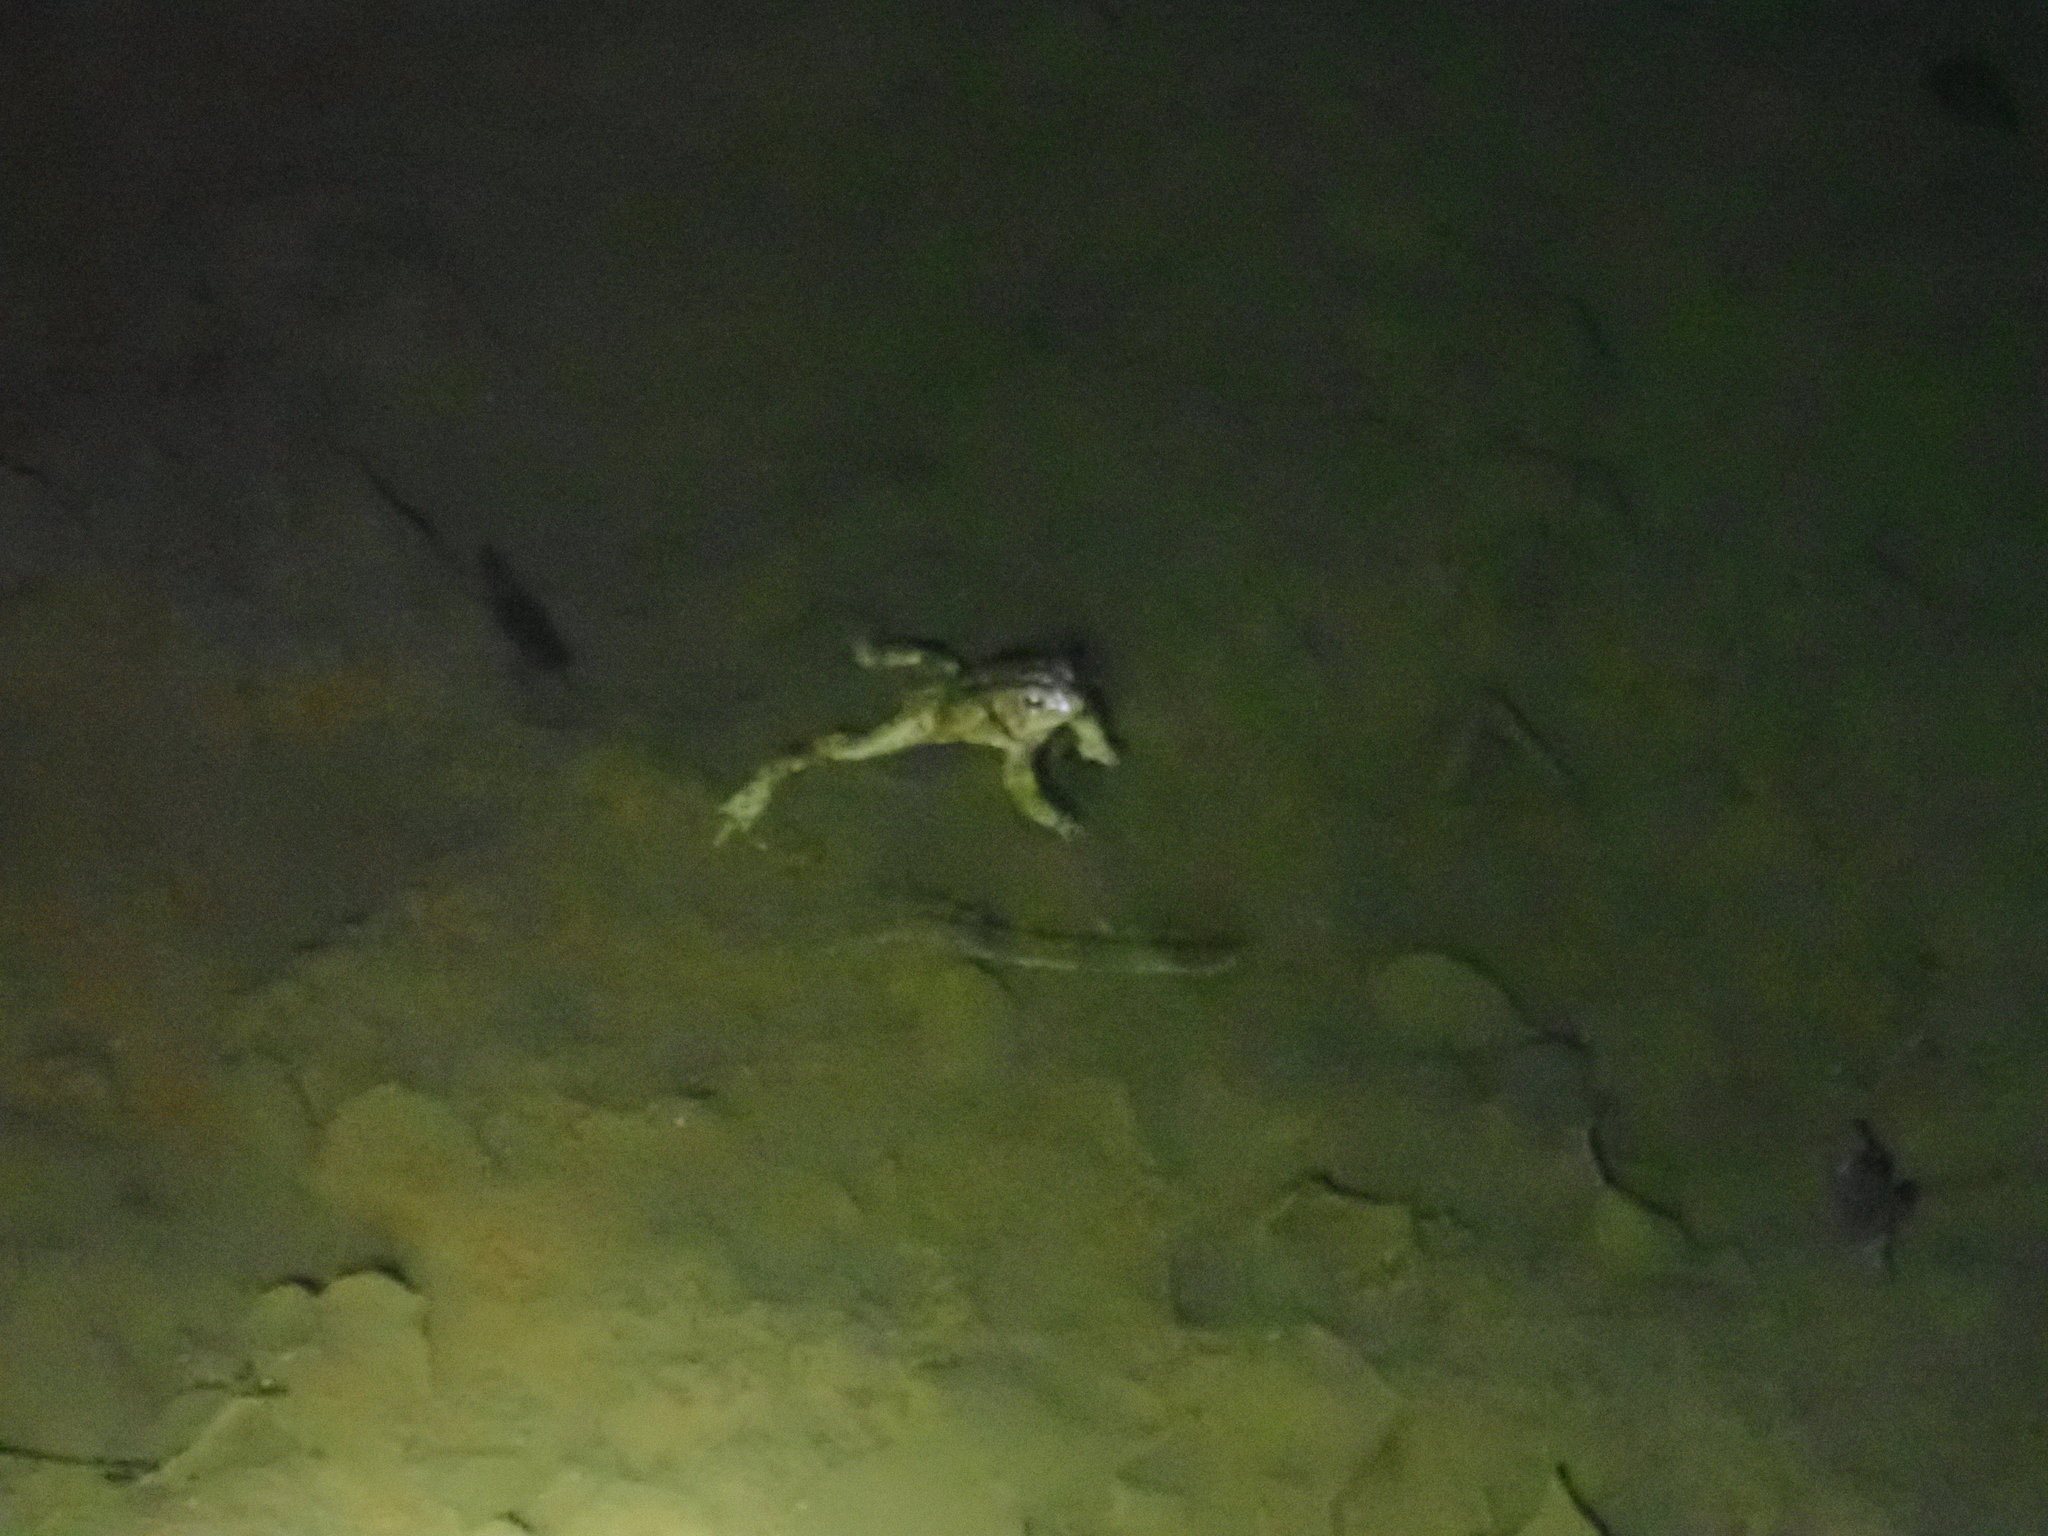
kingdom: Animalia
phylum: Chordata
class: Amphibia
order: Anura
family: Bufonidae
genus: Anaxyrus
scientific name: Anaxyrus americanus
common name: American toad
